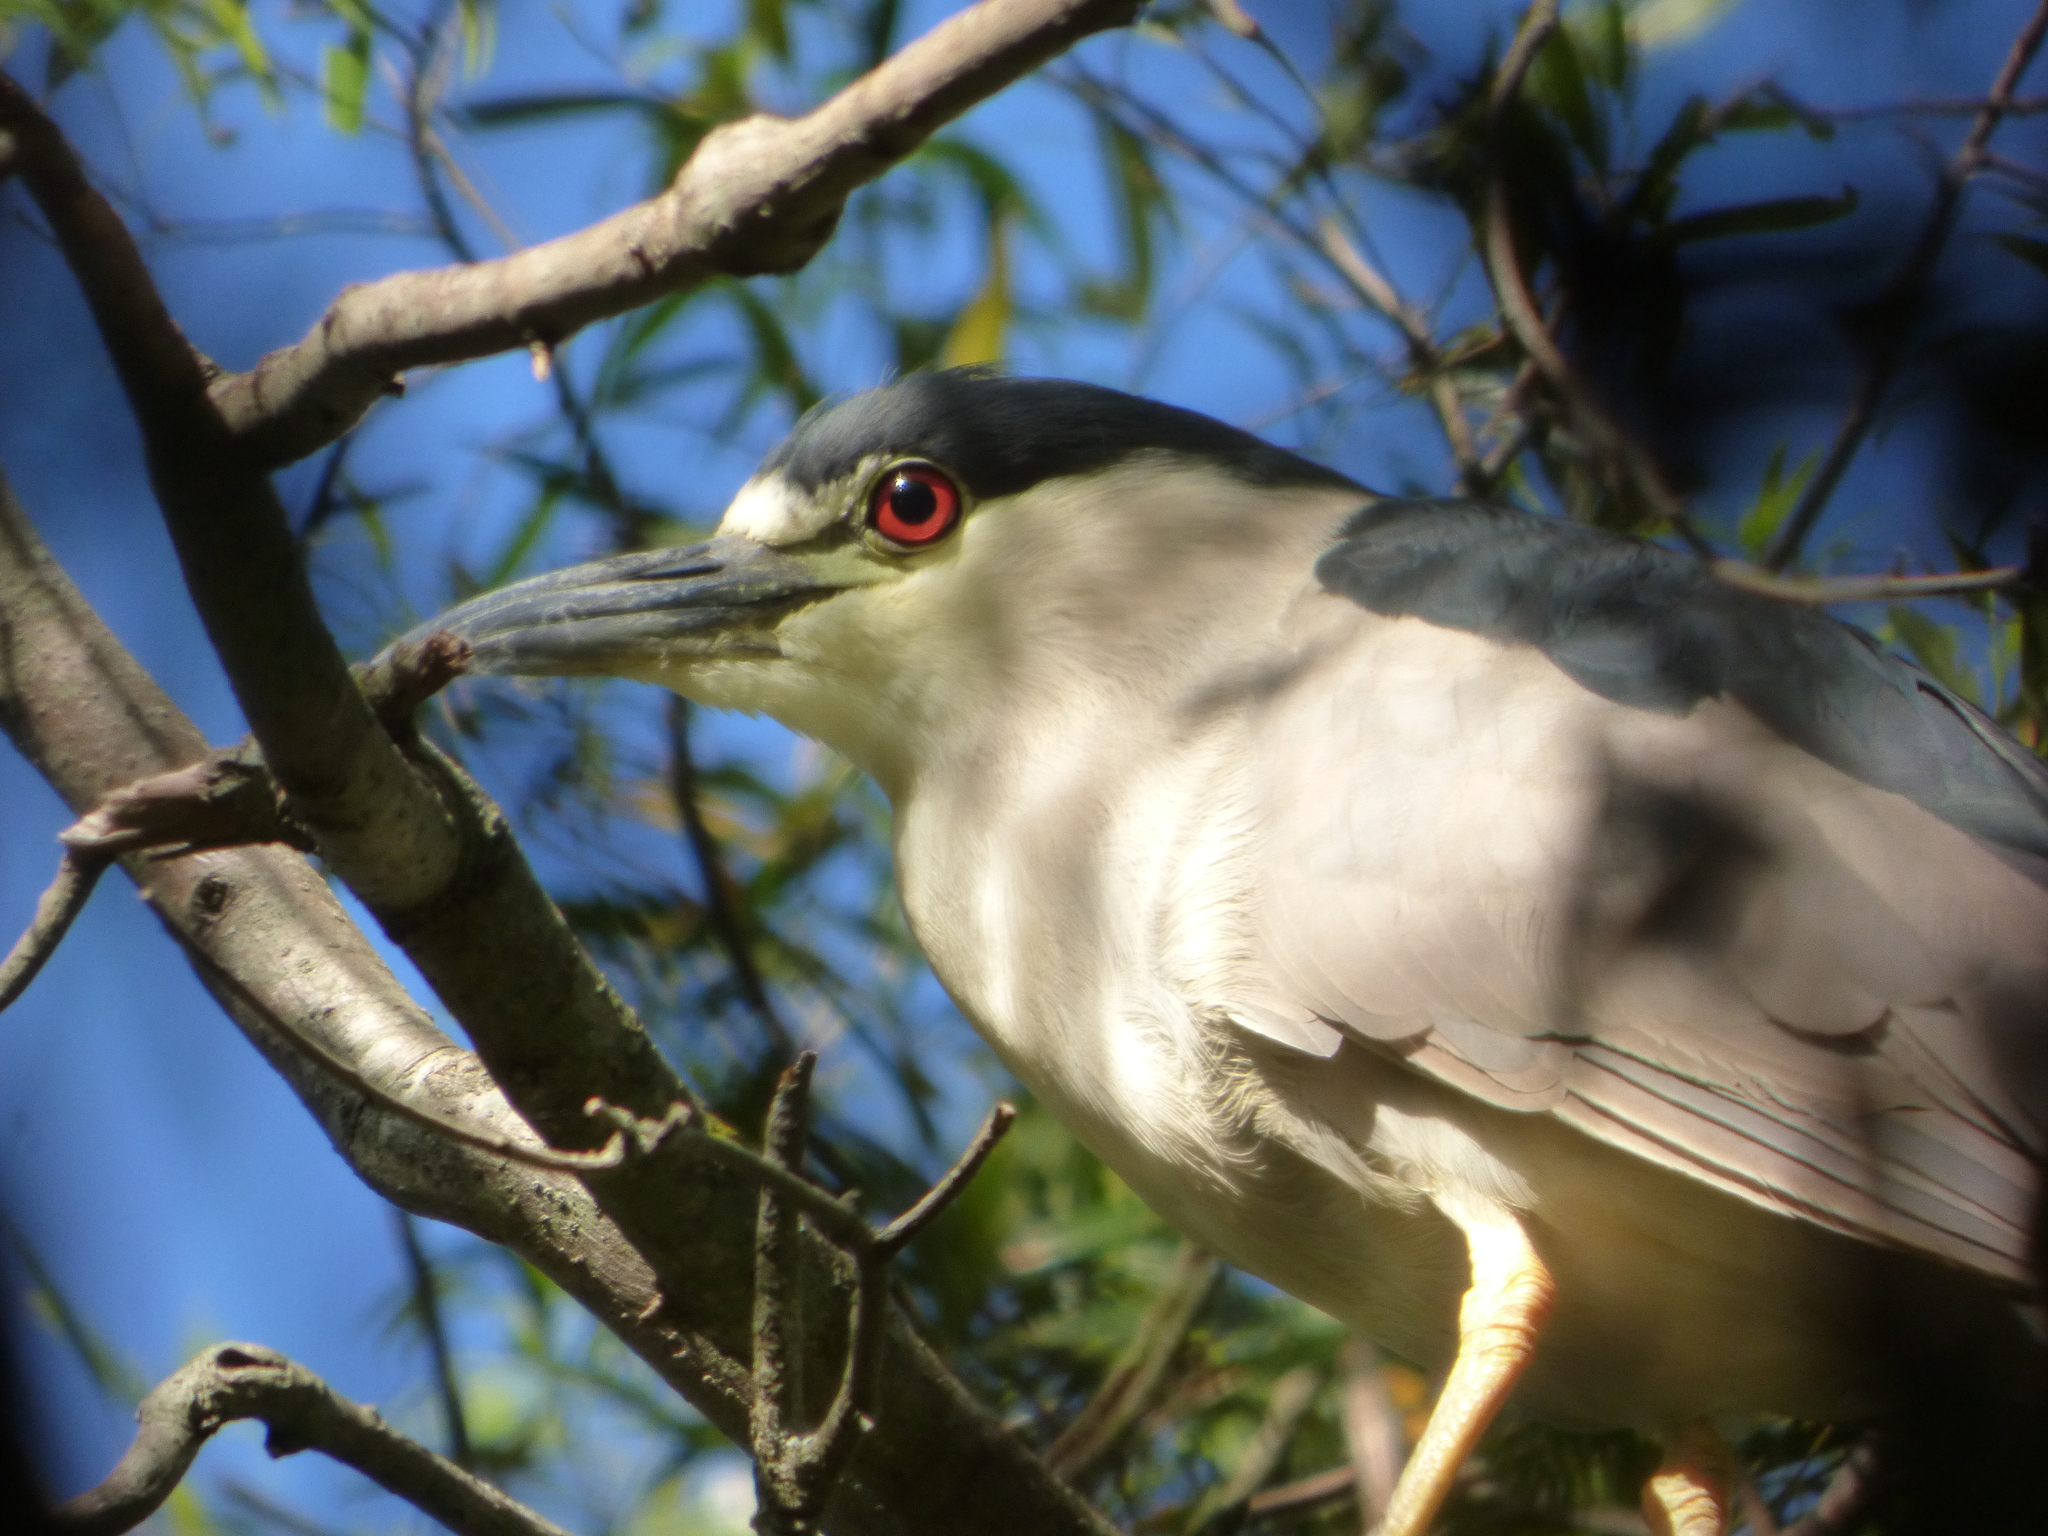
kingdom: Animalia
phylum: Chordata
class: Aves
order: Pelecaniformes
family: Ardeidae
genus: Nycticorax
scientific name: Nycticorax nycticorax
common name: Black-crowned night heron
